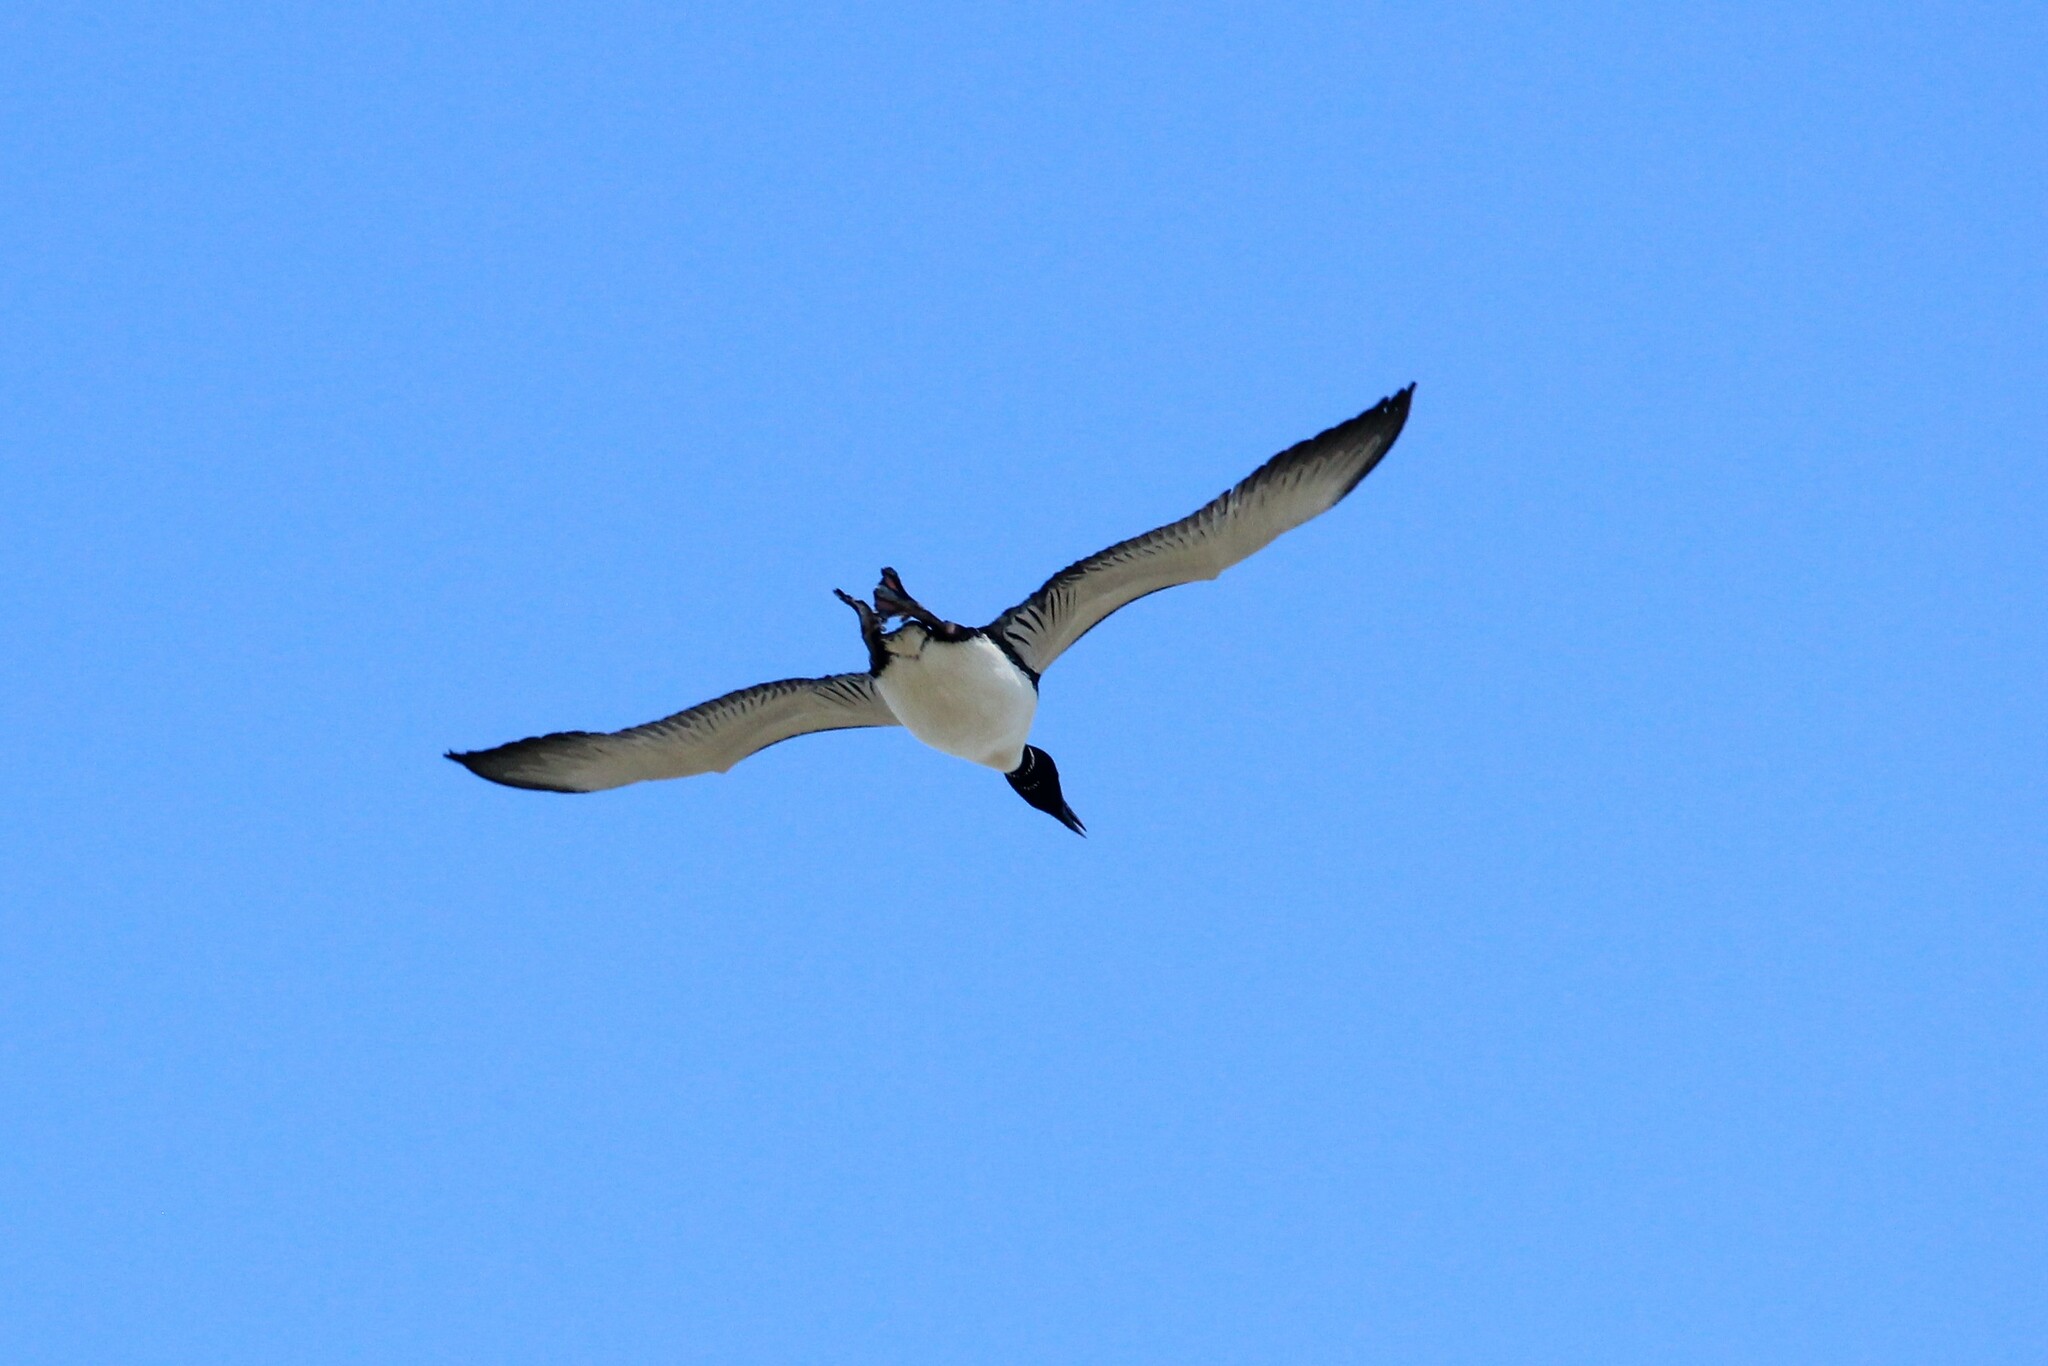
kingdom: Animalia
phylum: Chordata
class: Aves
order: Gaviiformes
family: Gaviidae
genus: Gavia
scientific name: Gavia immer
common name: Common loon
